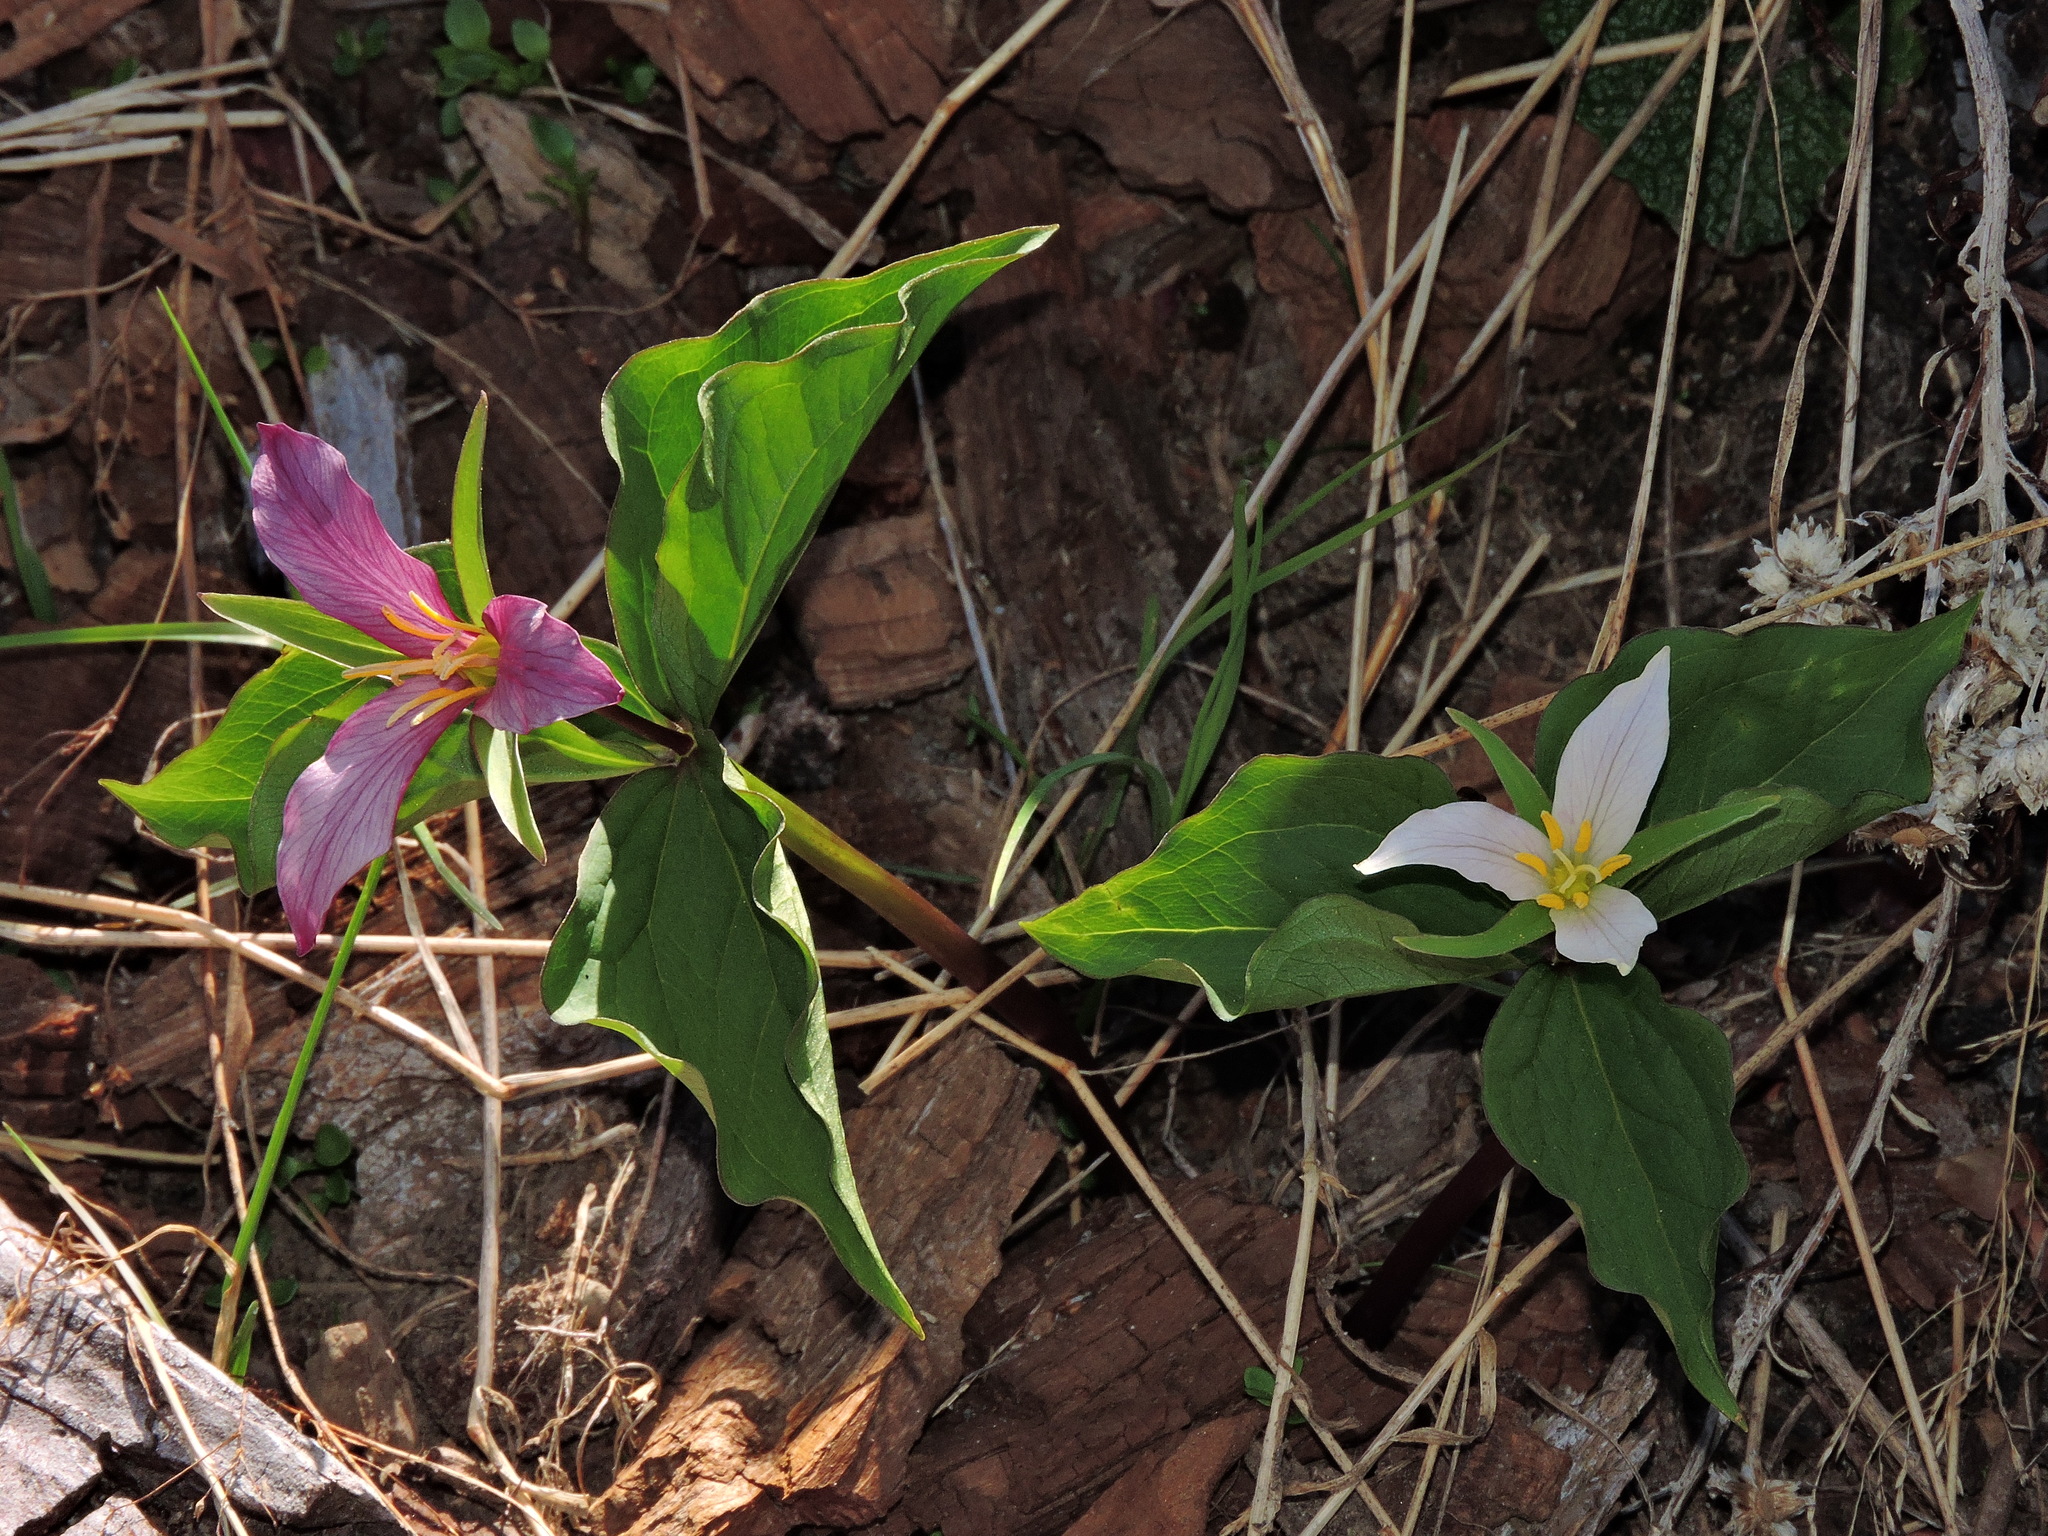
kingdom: Plantae
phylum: Tracheophyta
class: Liliopsida
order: Liliales
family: Melanthiaceae
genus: Trillium
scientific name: Trillium ovatum
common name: Pacific trillium
